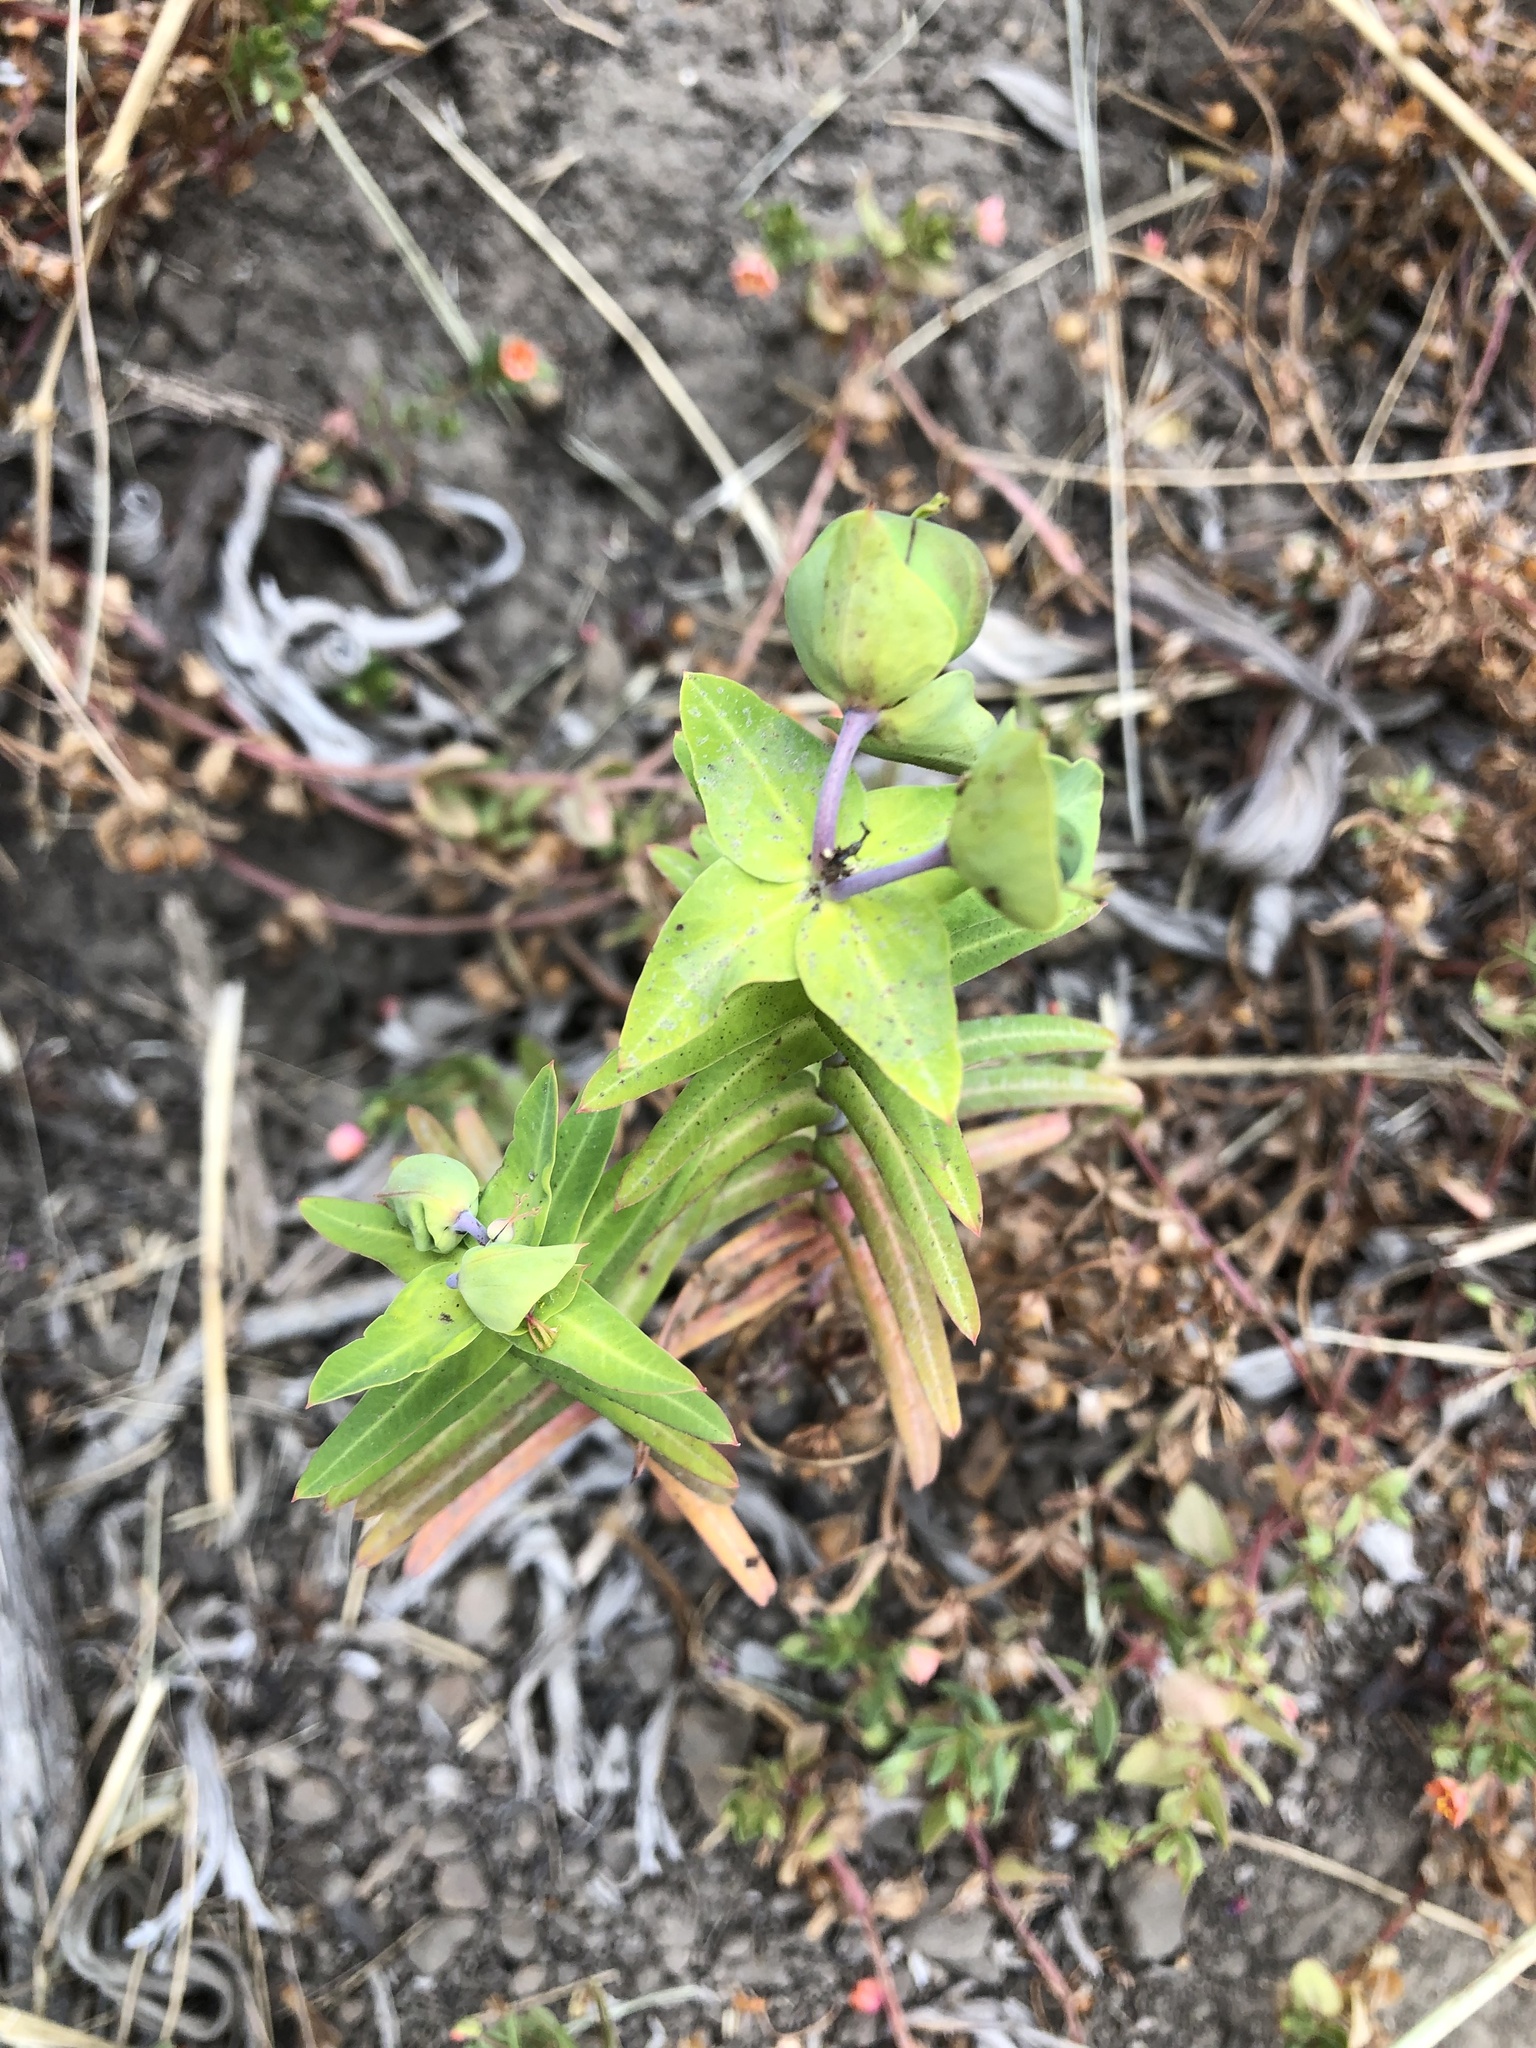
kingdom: Plantae
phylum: Tracheophyta
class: Magnoliopsida
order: Malpighiales
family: Euphorbiaceae
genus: Euphorbia
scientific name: Euphorbia lathyris
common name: Caper spurge
